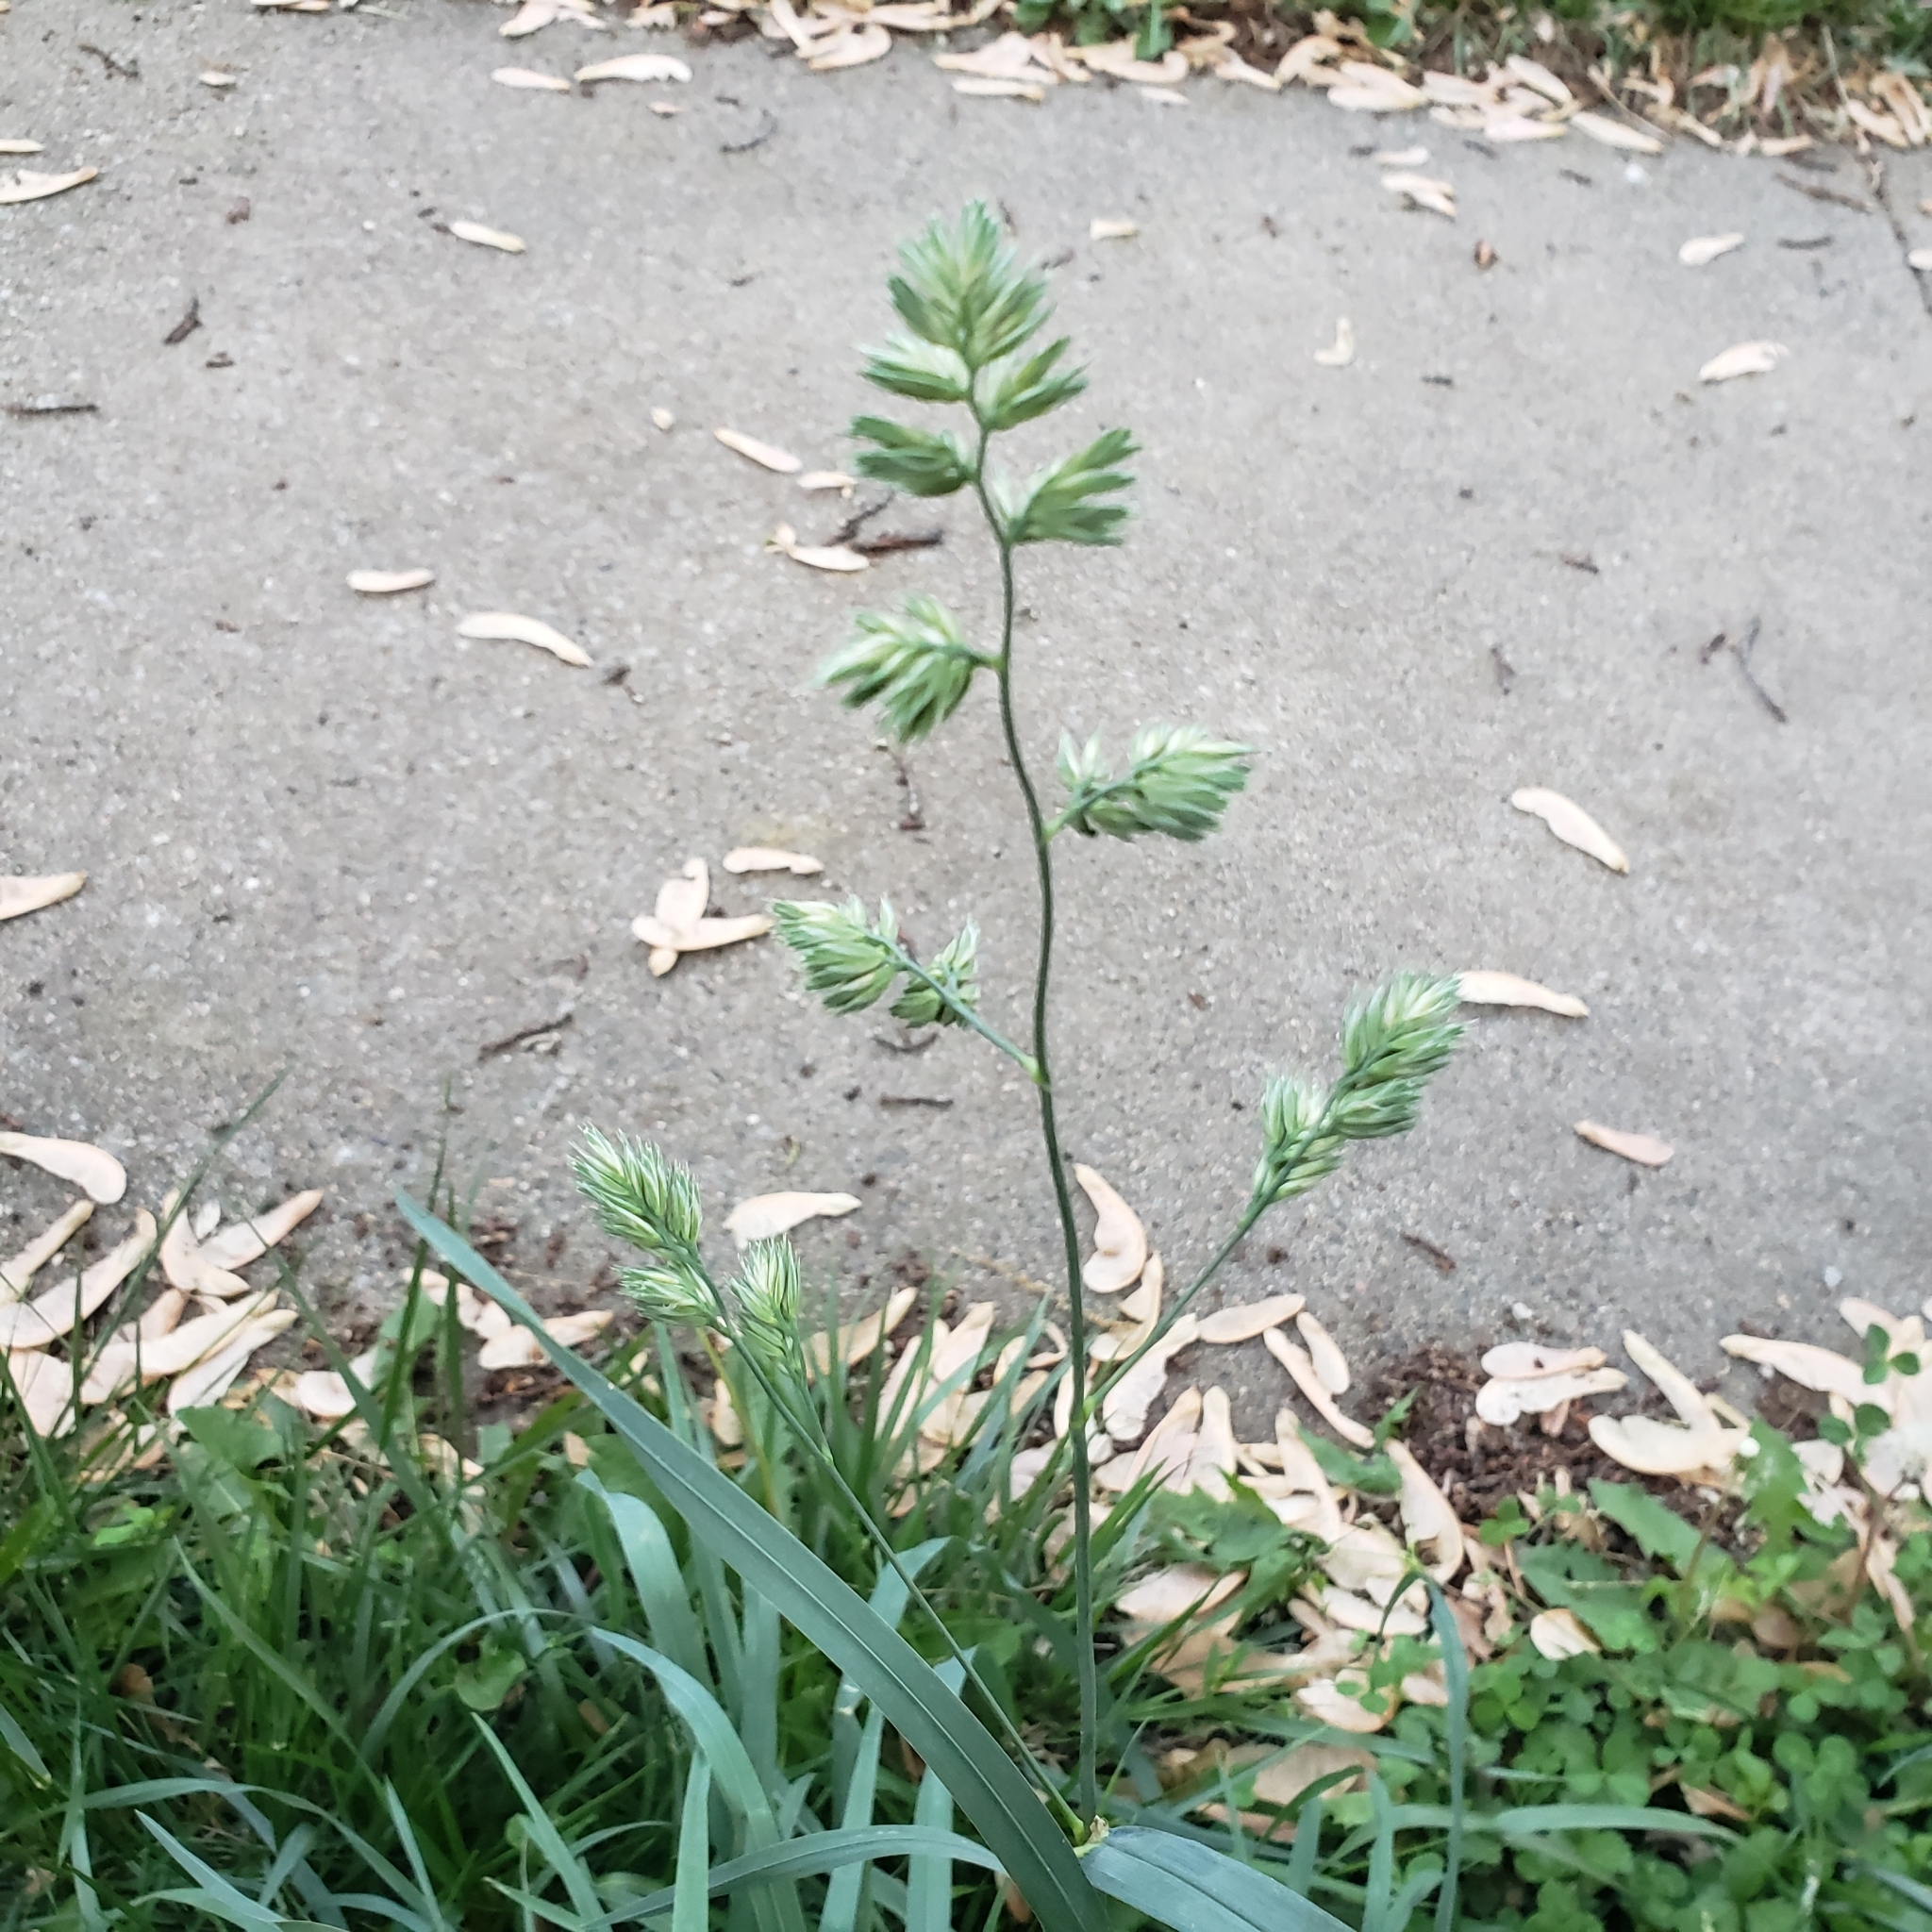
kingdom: Plantae
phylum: Tracheophyta
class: Liliopsida
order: Poales
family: Poaceae
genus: Dactylis
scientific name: Dactylis glomerata
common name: Orchardgrass
